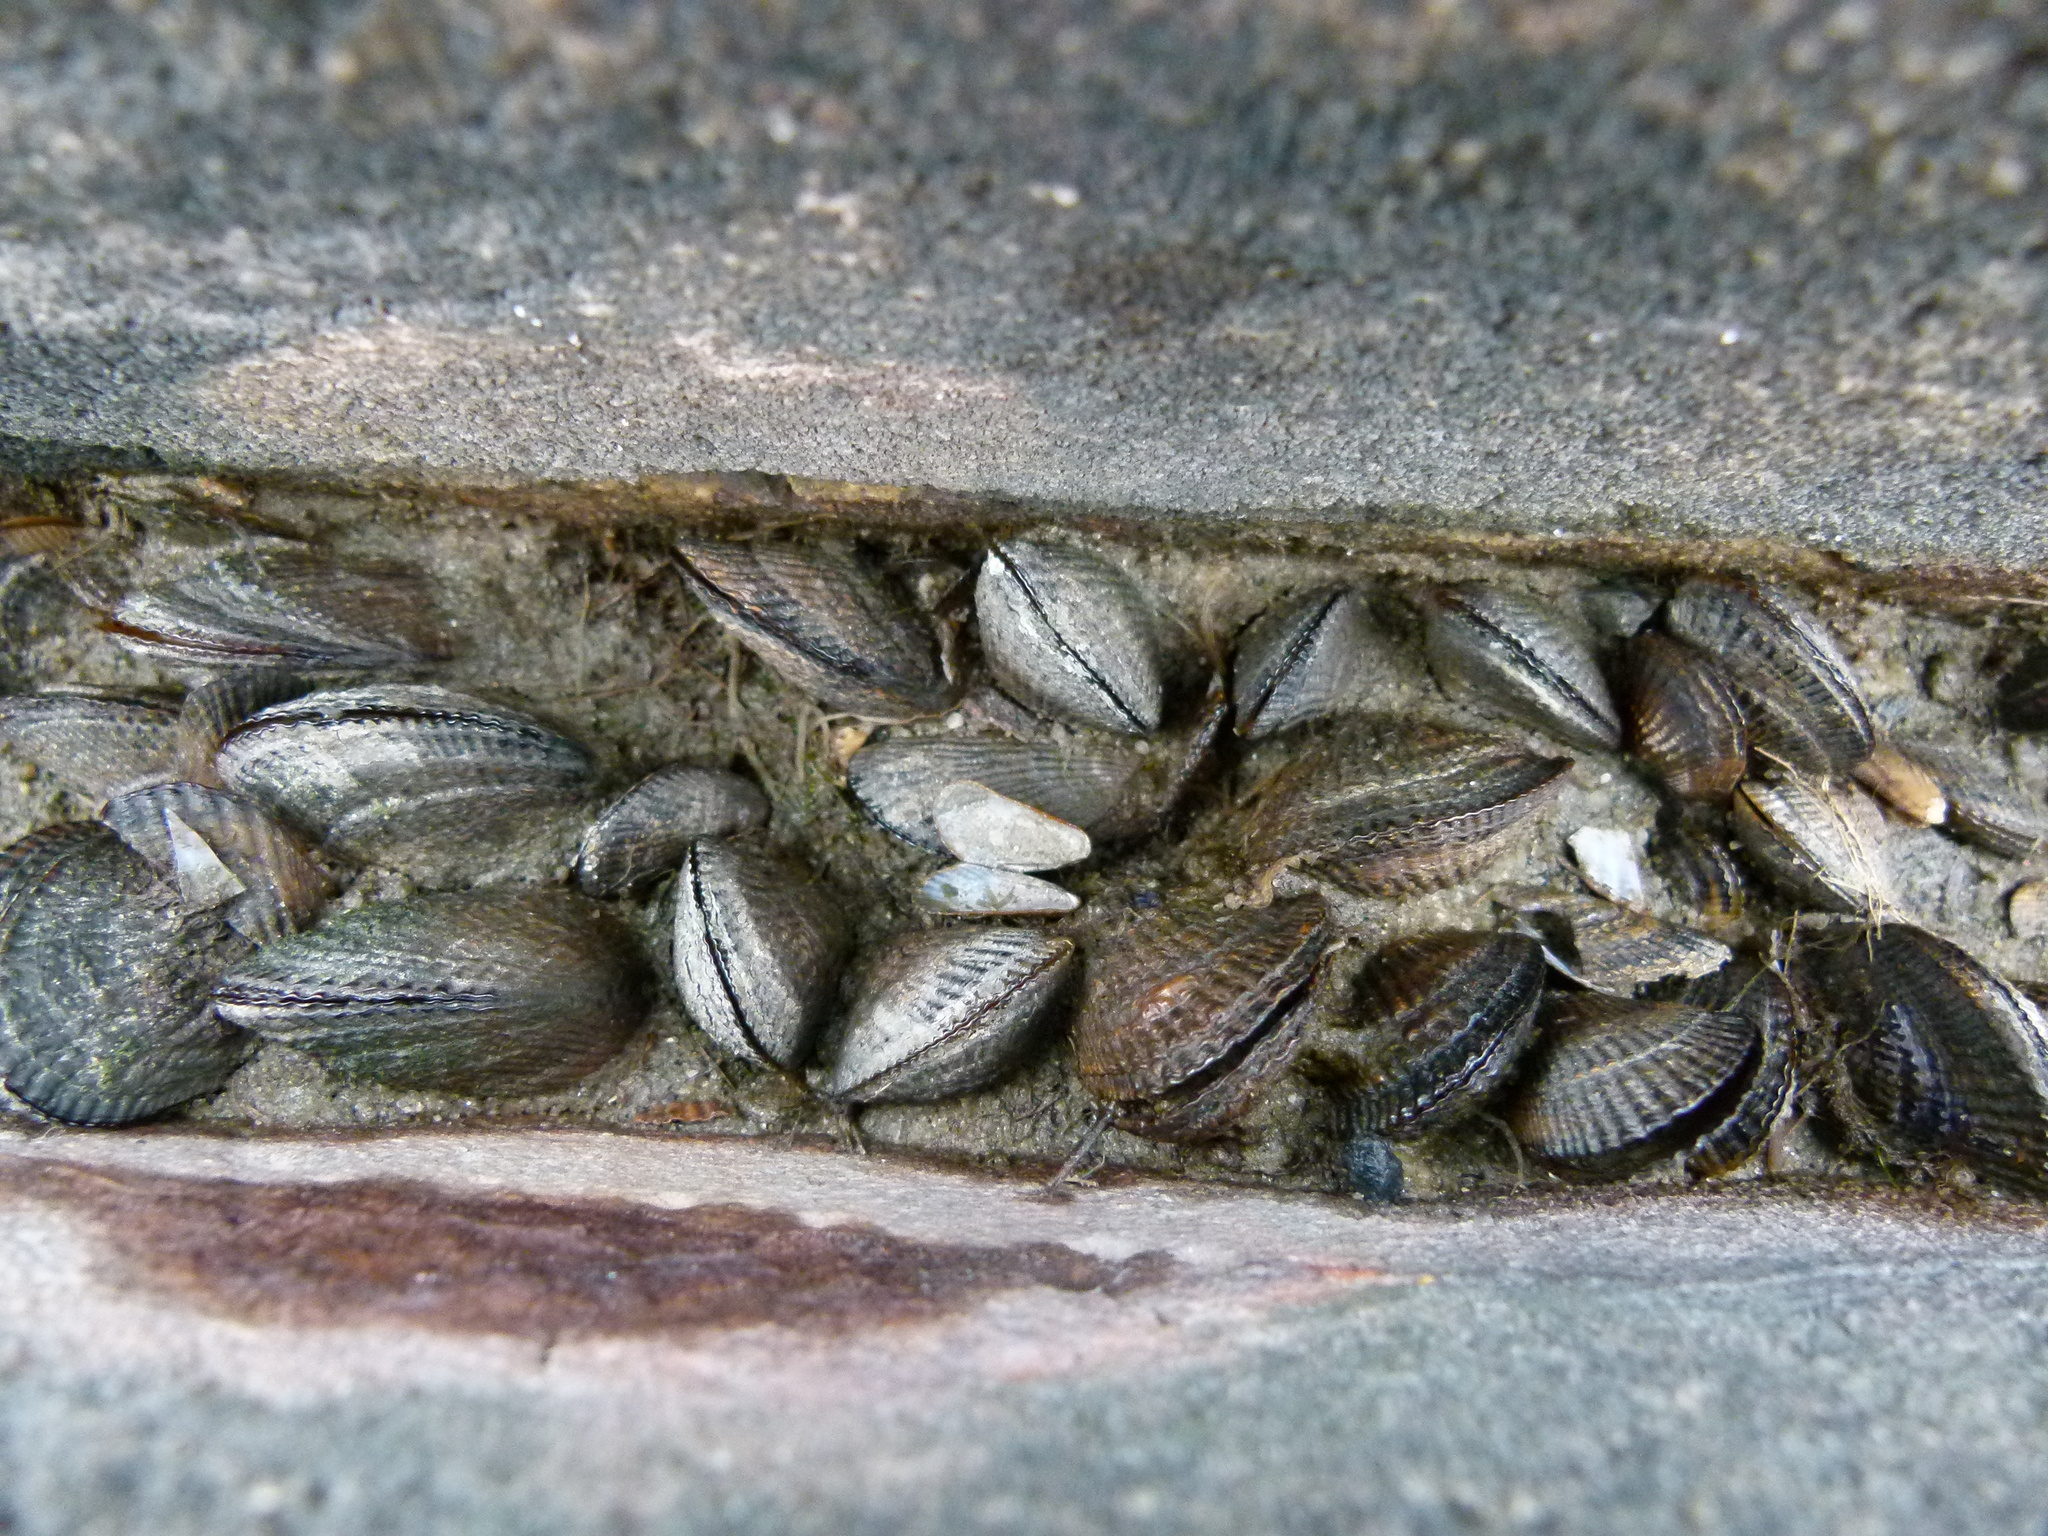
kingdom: Animalia
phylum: Mollusca
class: Bivalvia
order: Mytilida
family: Mytilidae
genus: Geukensia
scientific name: Geukensia demissa
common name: Ribbed mussel
